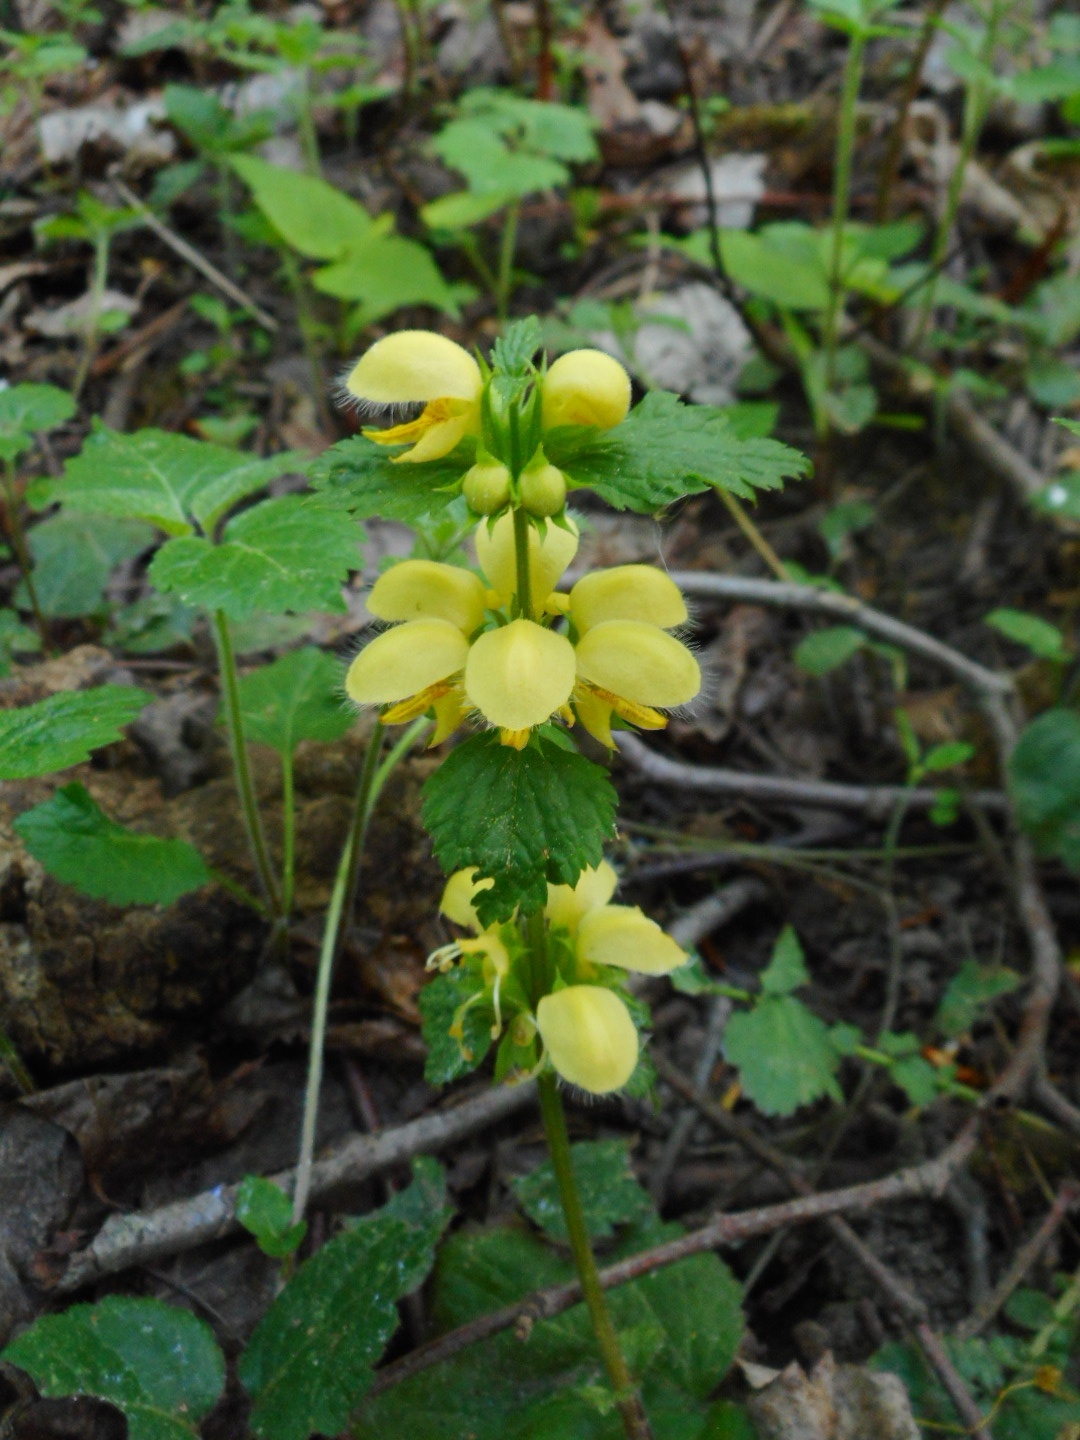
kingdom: Plantae
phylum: Tracheophyta
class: Magnoliopsida
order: Lamiales
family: Lamiaceae
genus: Lamium
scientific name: Lamium galeobdolon
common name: Yellow archangel
